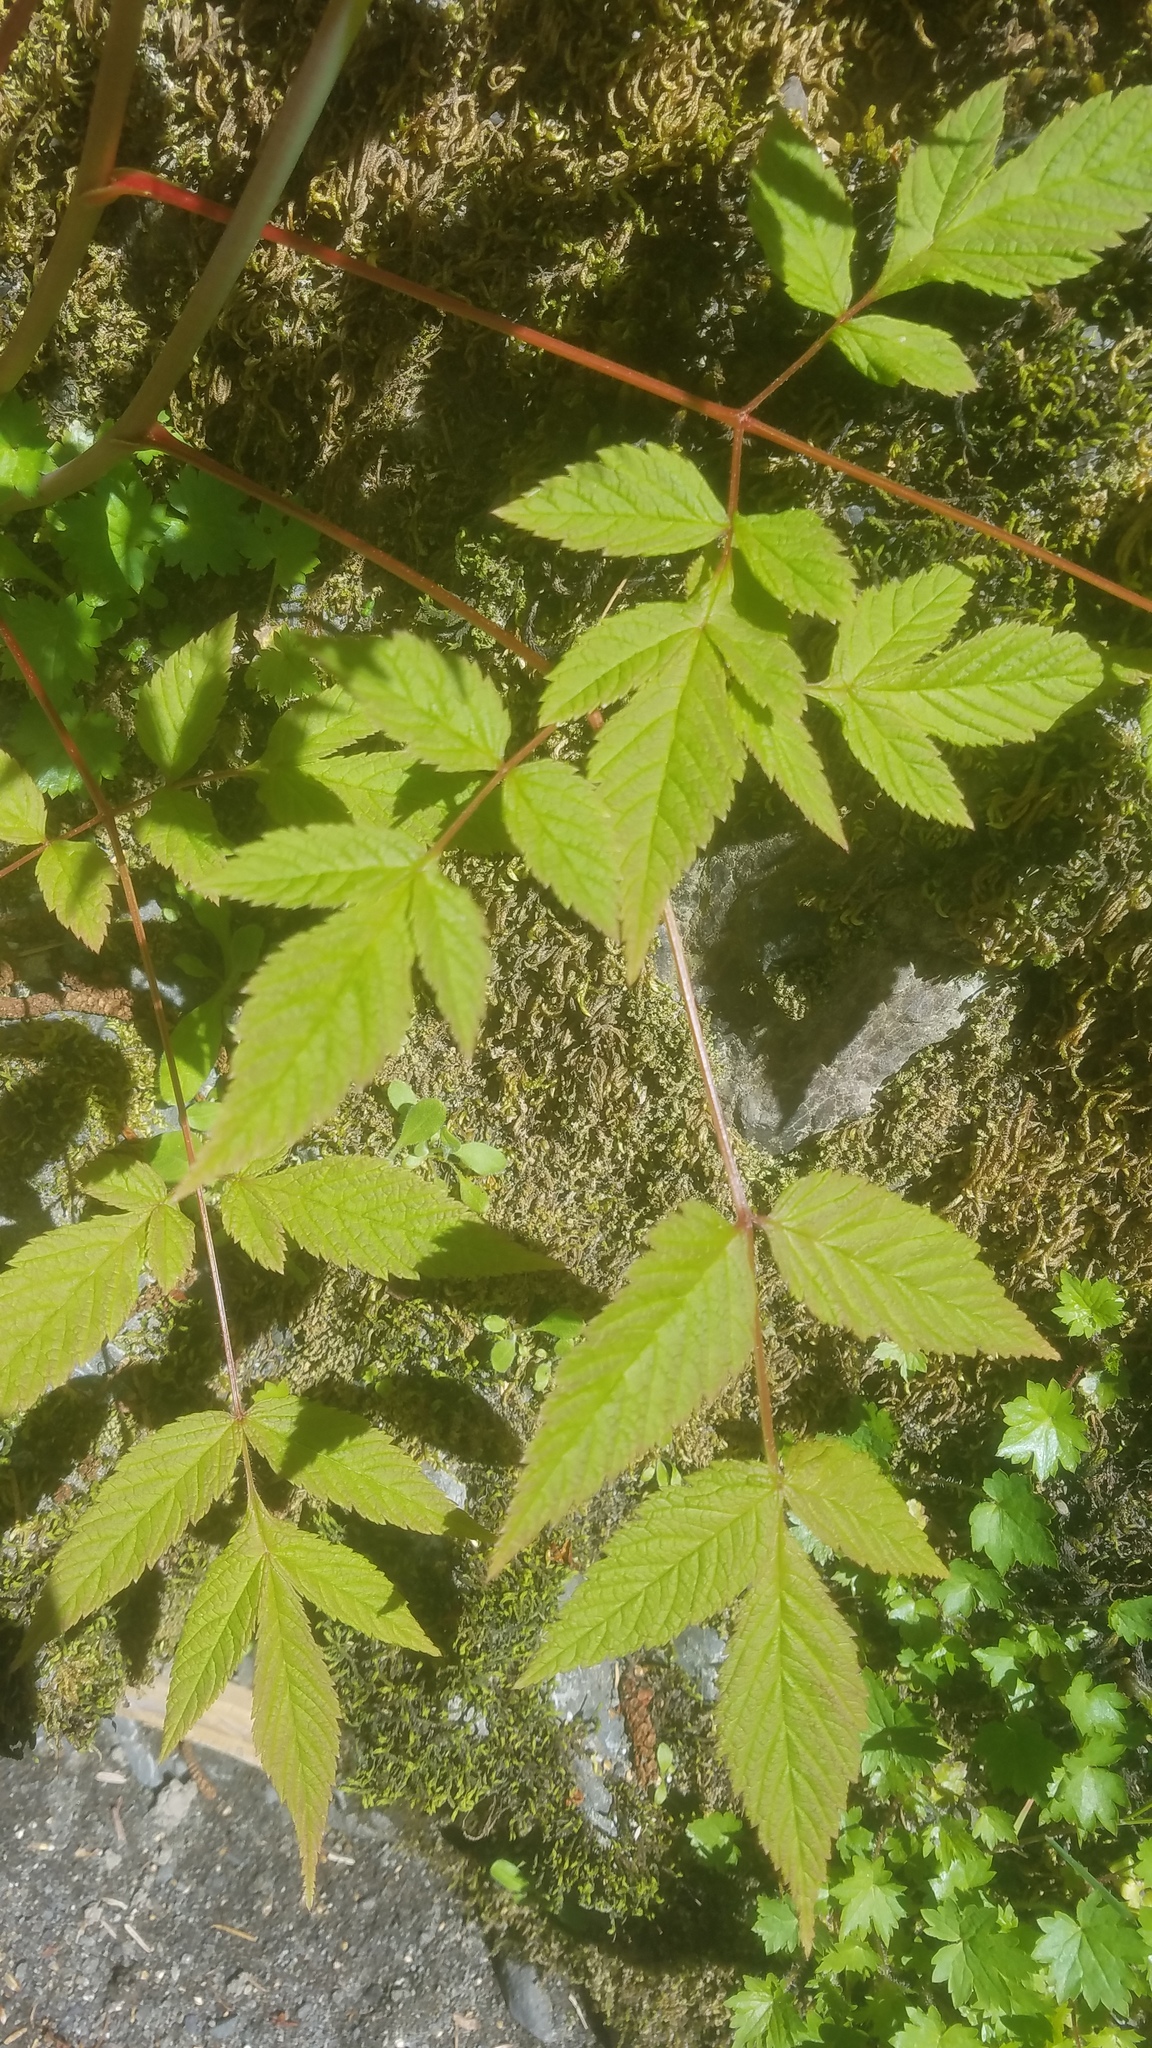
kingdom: Plantae
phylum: Tracheophyta
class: Magnoliopsida
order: Rosales
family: Rosaceae
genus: Aruncus
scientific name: Aruncus dioicus
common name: Buck's-beard
